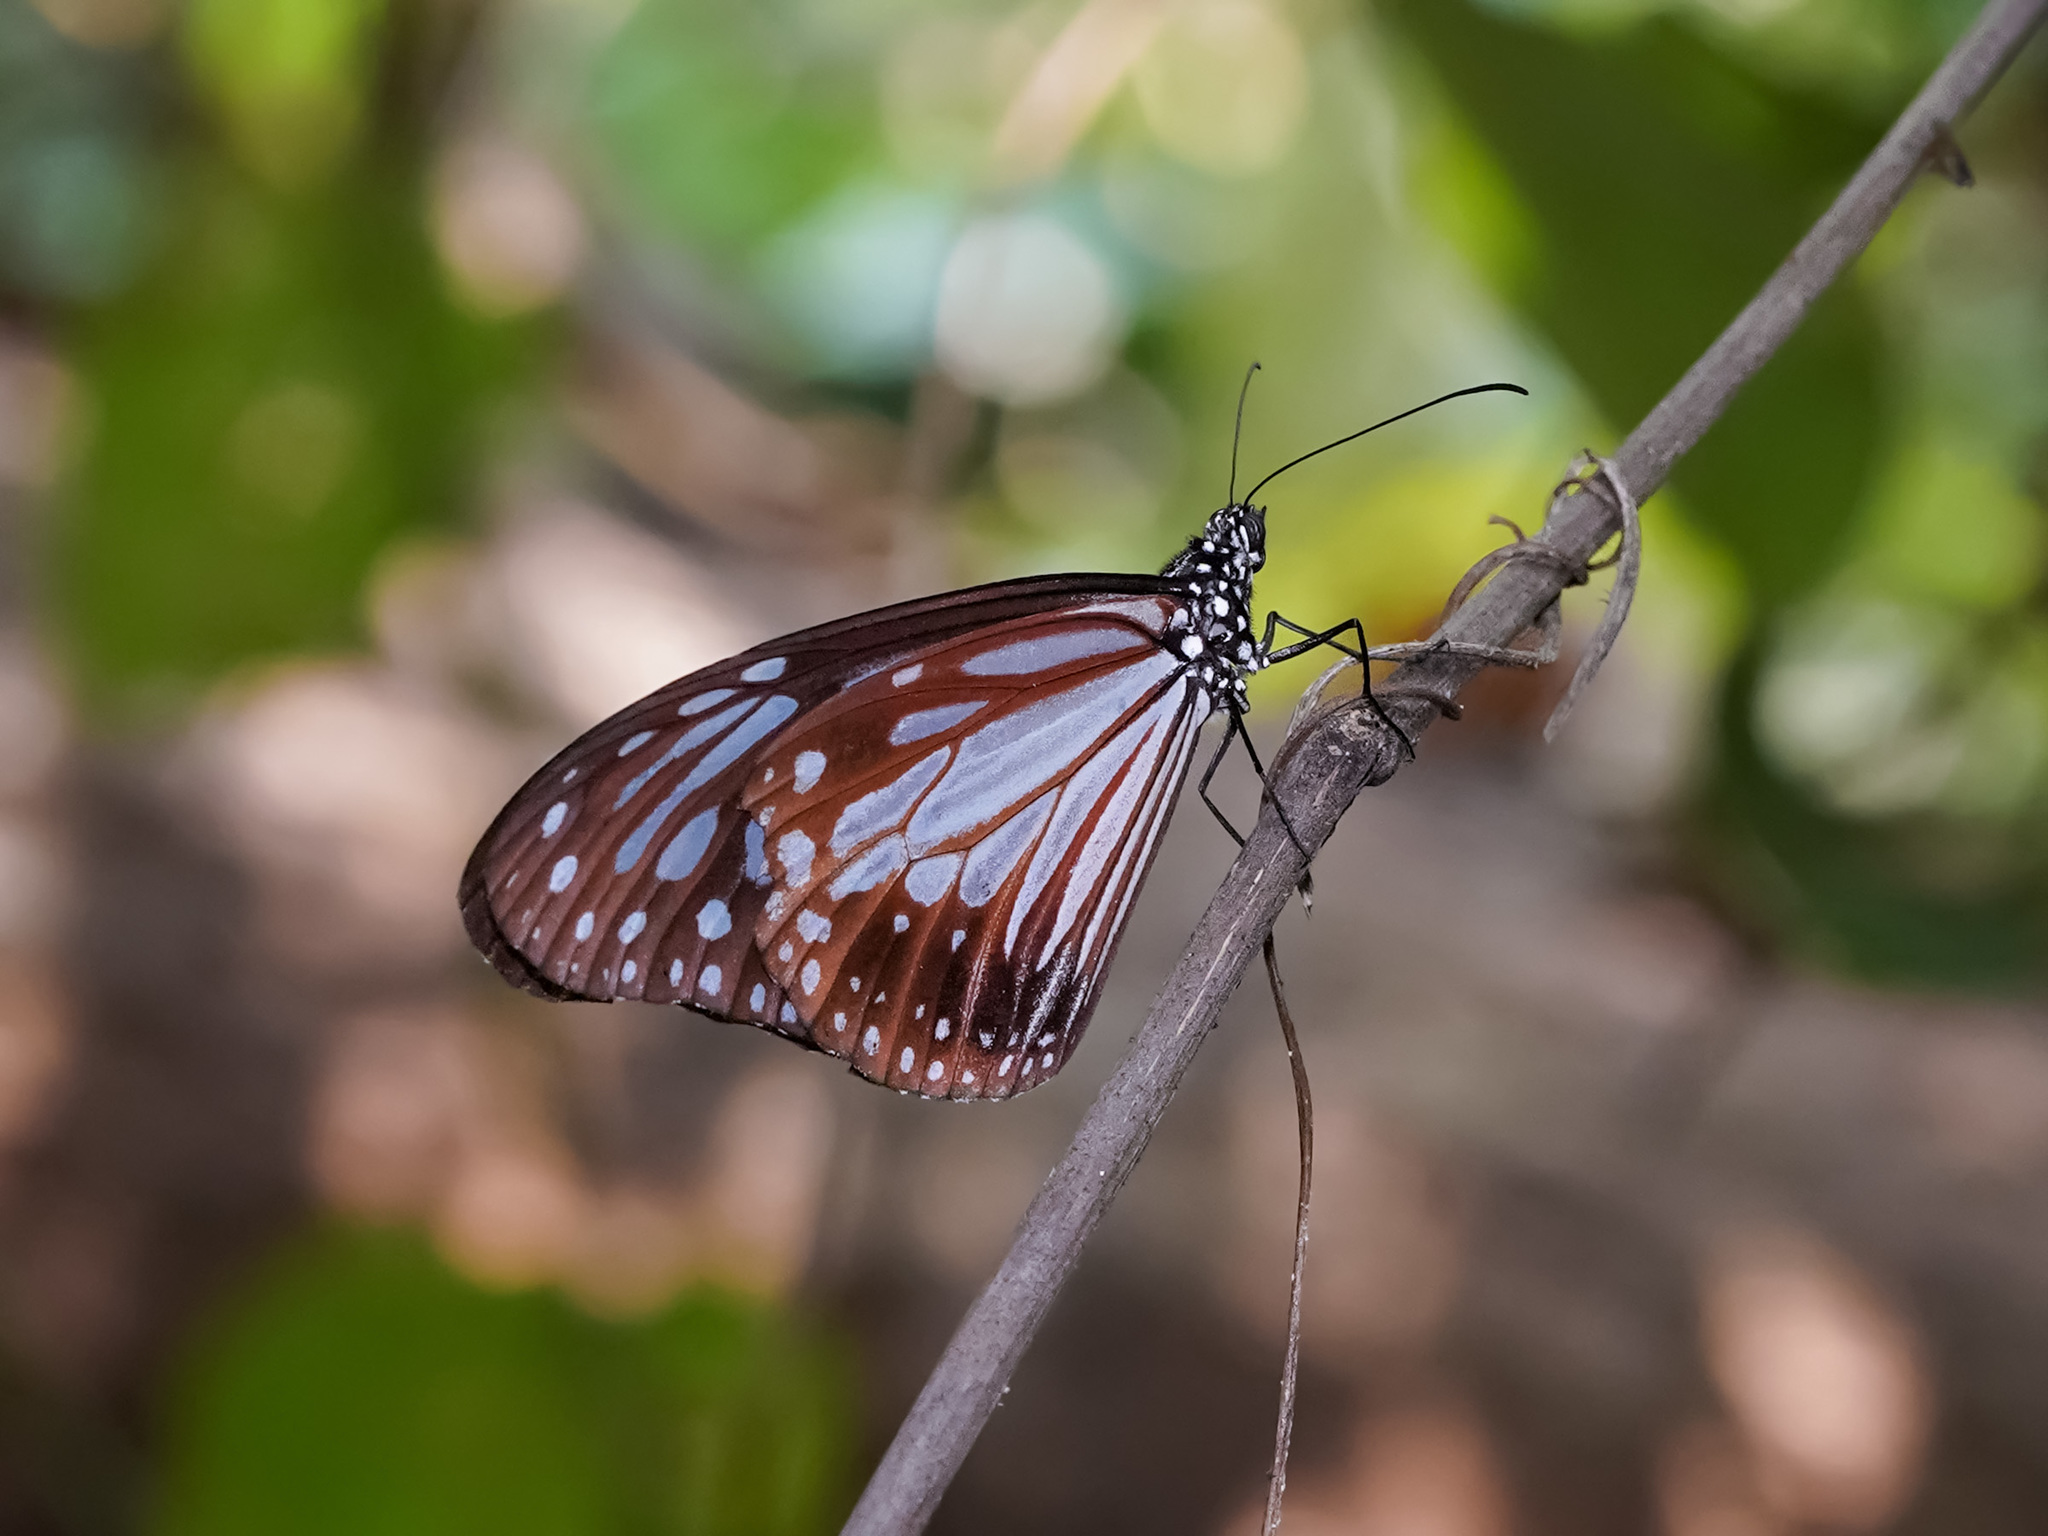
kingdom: Animalia
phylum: Arthropoda
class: Insecta
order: Lepidoptera
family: Nymphalidae
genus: Parantica
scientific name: Parantica melaneus
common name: Chocolate tiger
